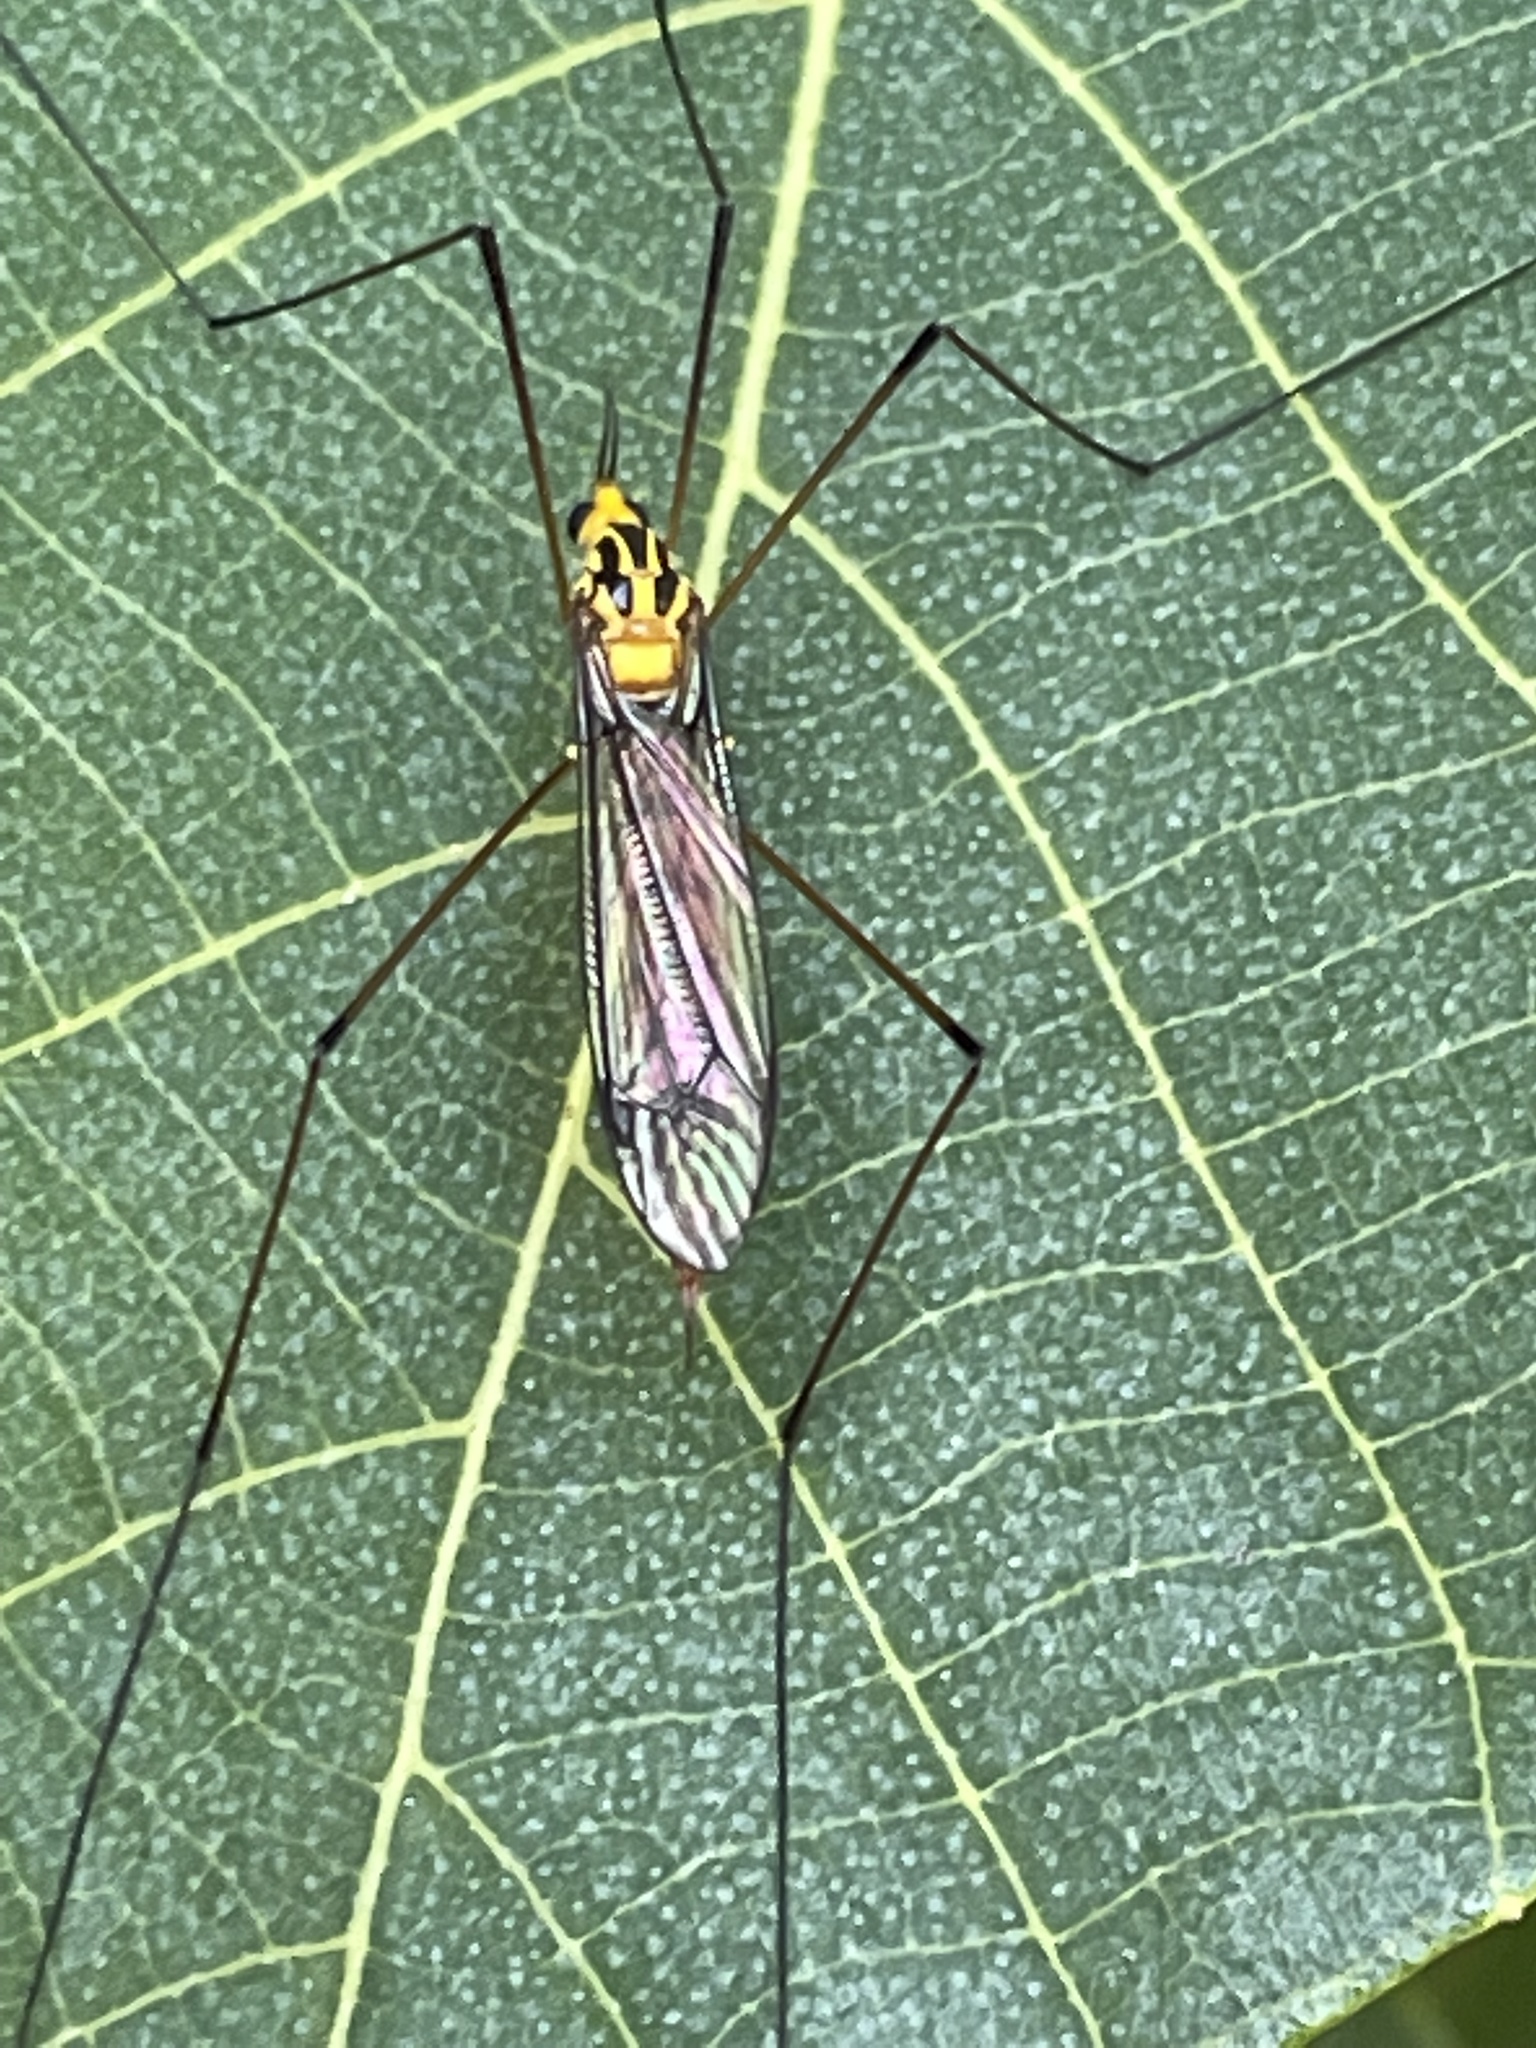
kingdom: Animalia
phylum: Arthropoda
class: Insecta
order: Diptera
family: Tipulidae
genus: Nephrotoma
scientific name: Nephrotoma australasiae
